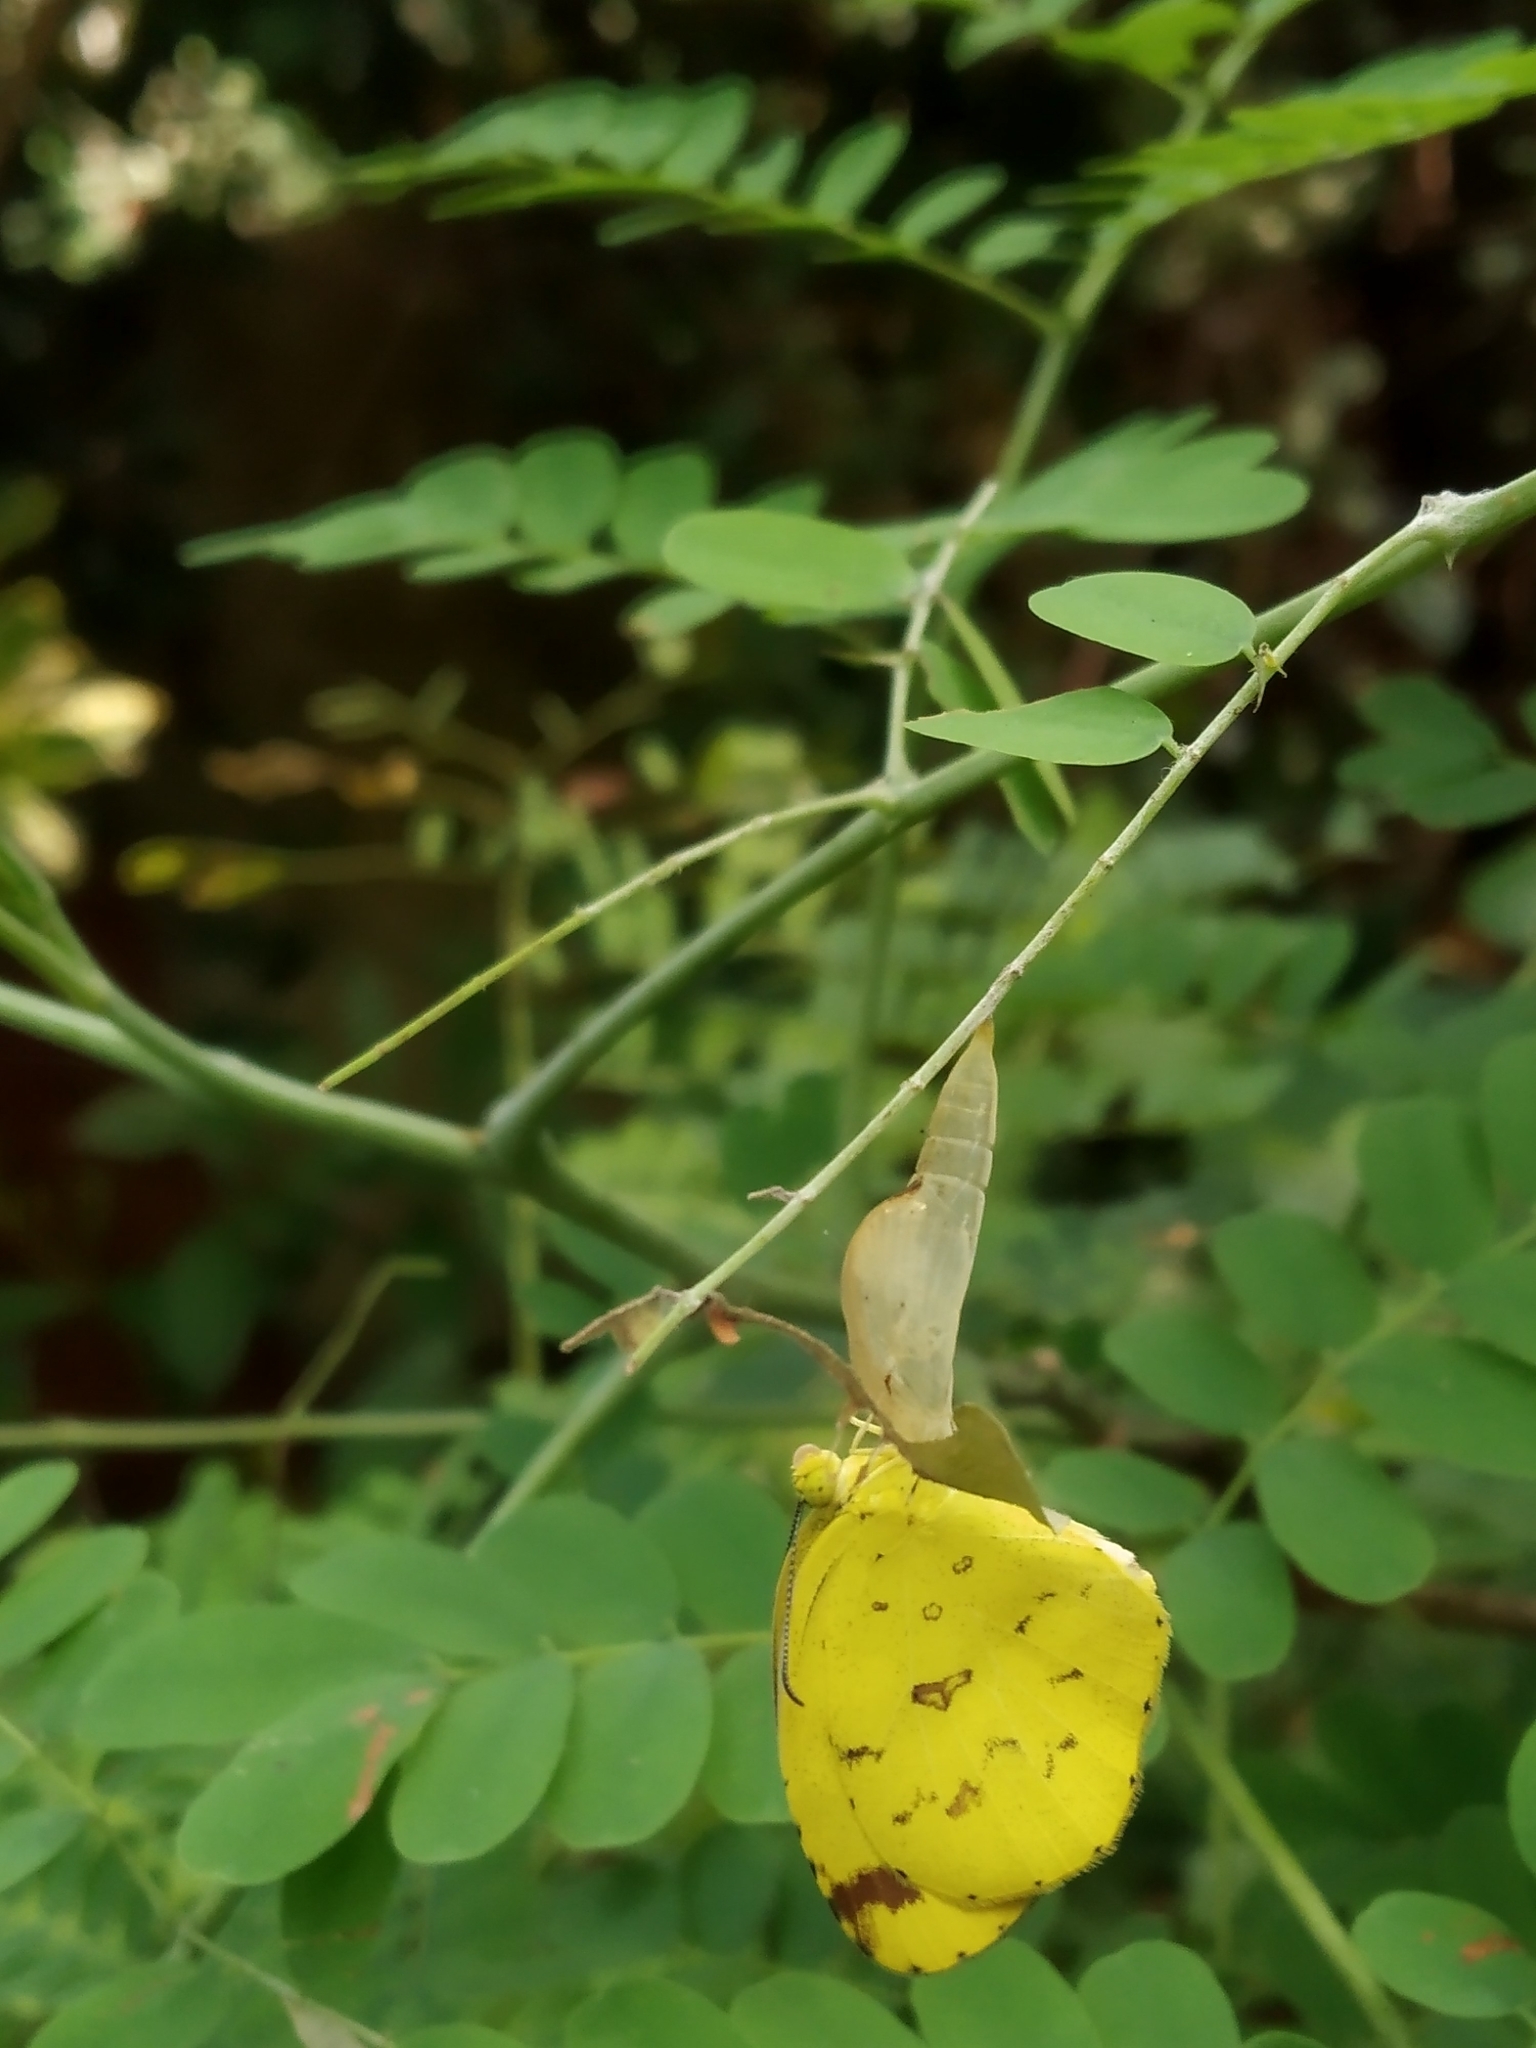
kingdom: Animalia
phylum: Arthropoda
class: Insecta
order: Lepidoptera
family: Pieridae
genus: Eurema
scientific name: Eurema hecabe
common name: Pale grass yellow
